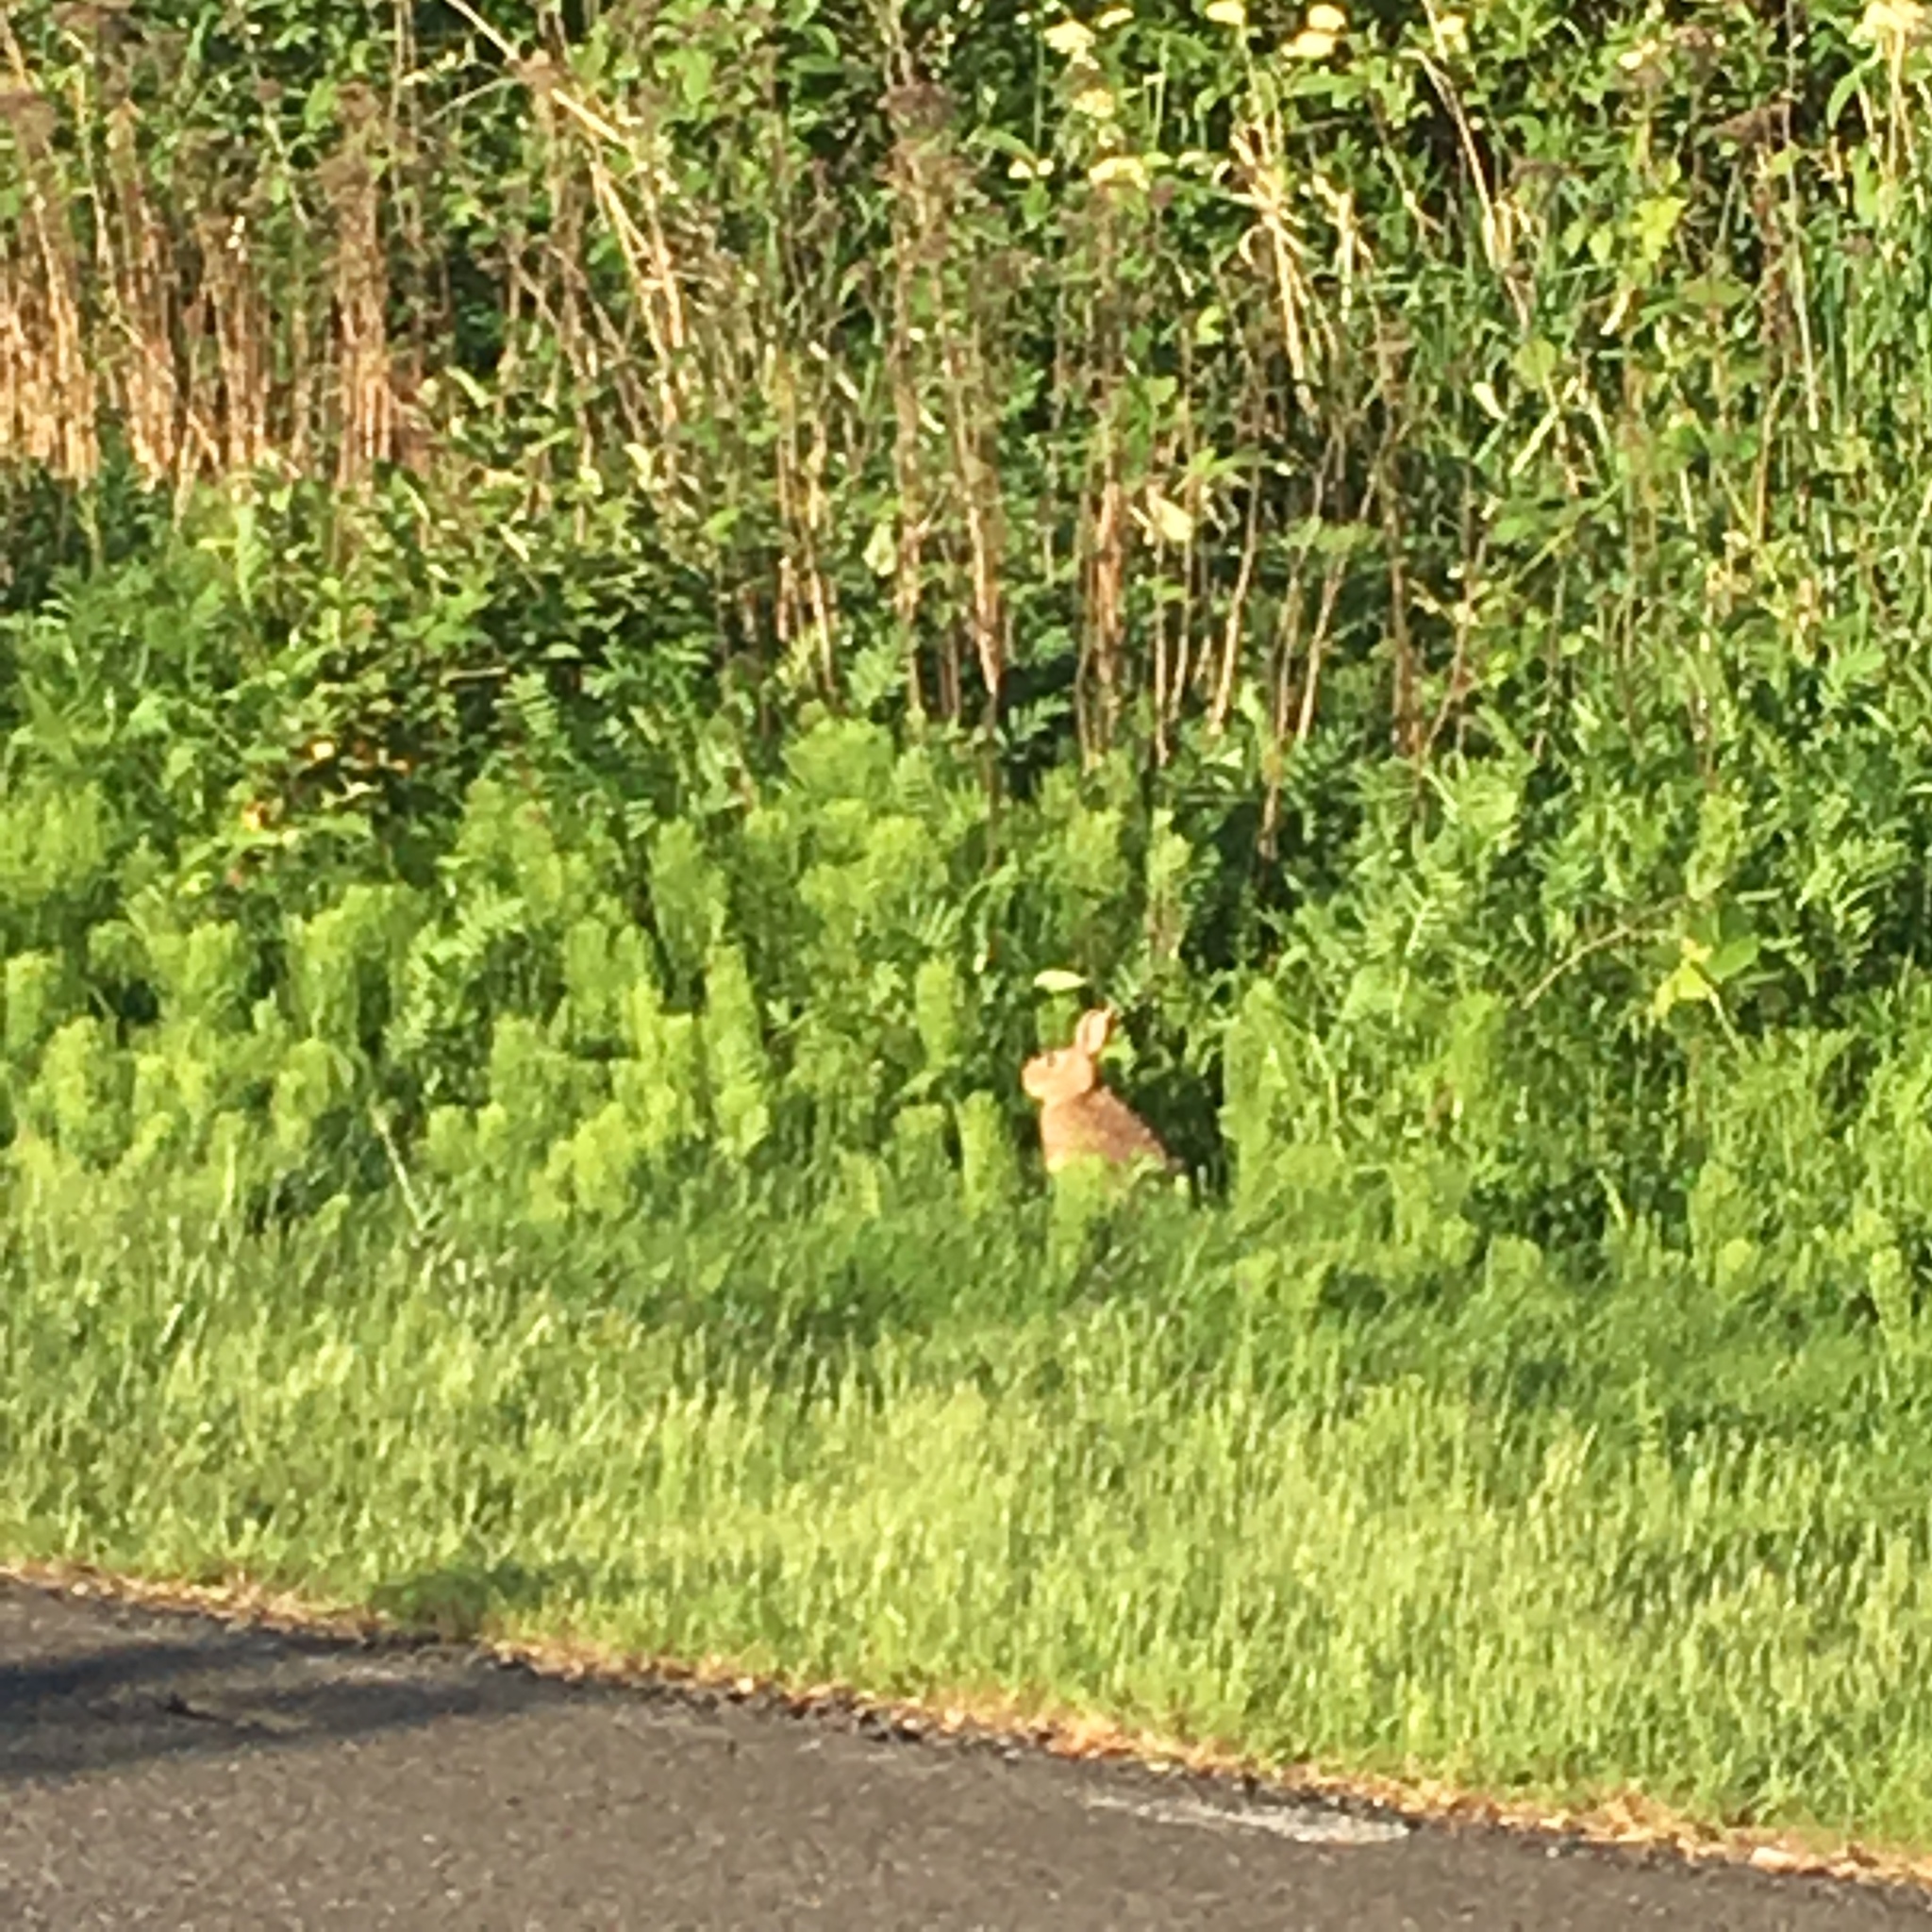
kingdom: Animalia
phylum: Chordata
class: Mammalia
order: Lagomorpha
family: Leporidae
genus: Sylvilagus
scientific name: Sylvilagus floridanus
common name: Eastern cottontail
